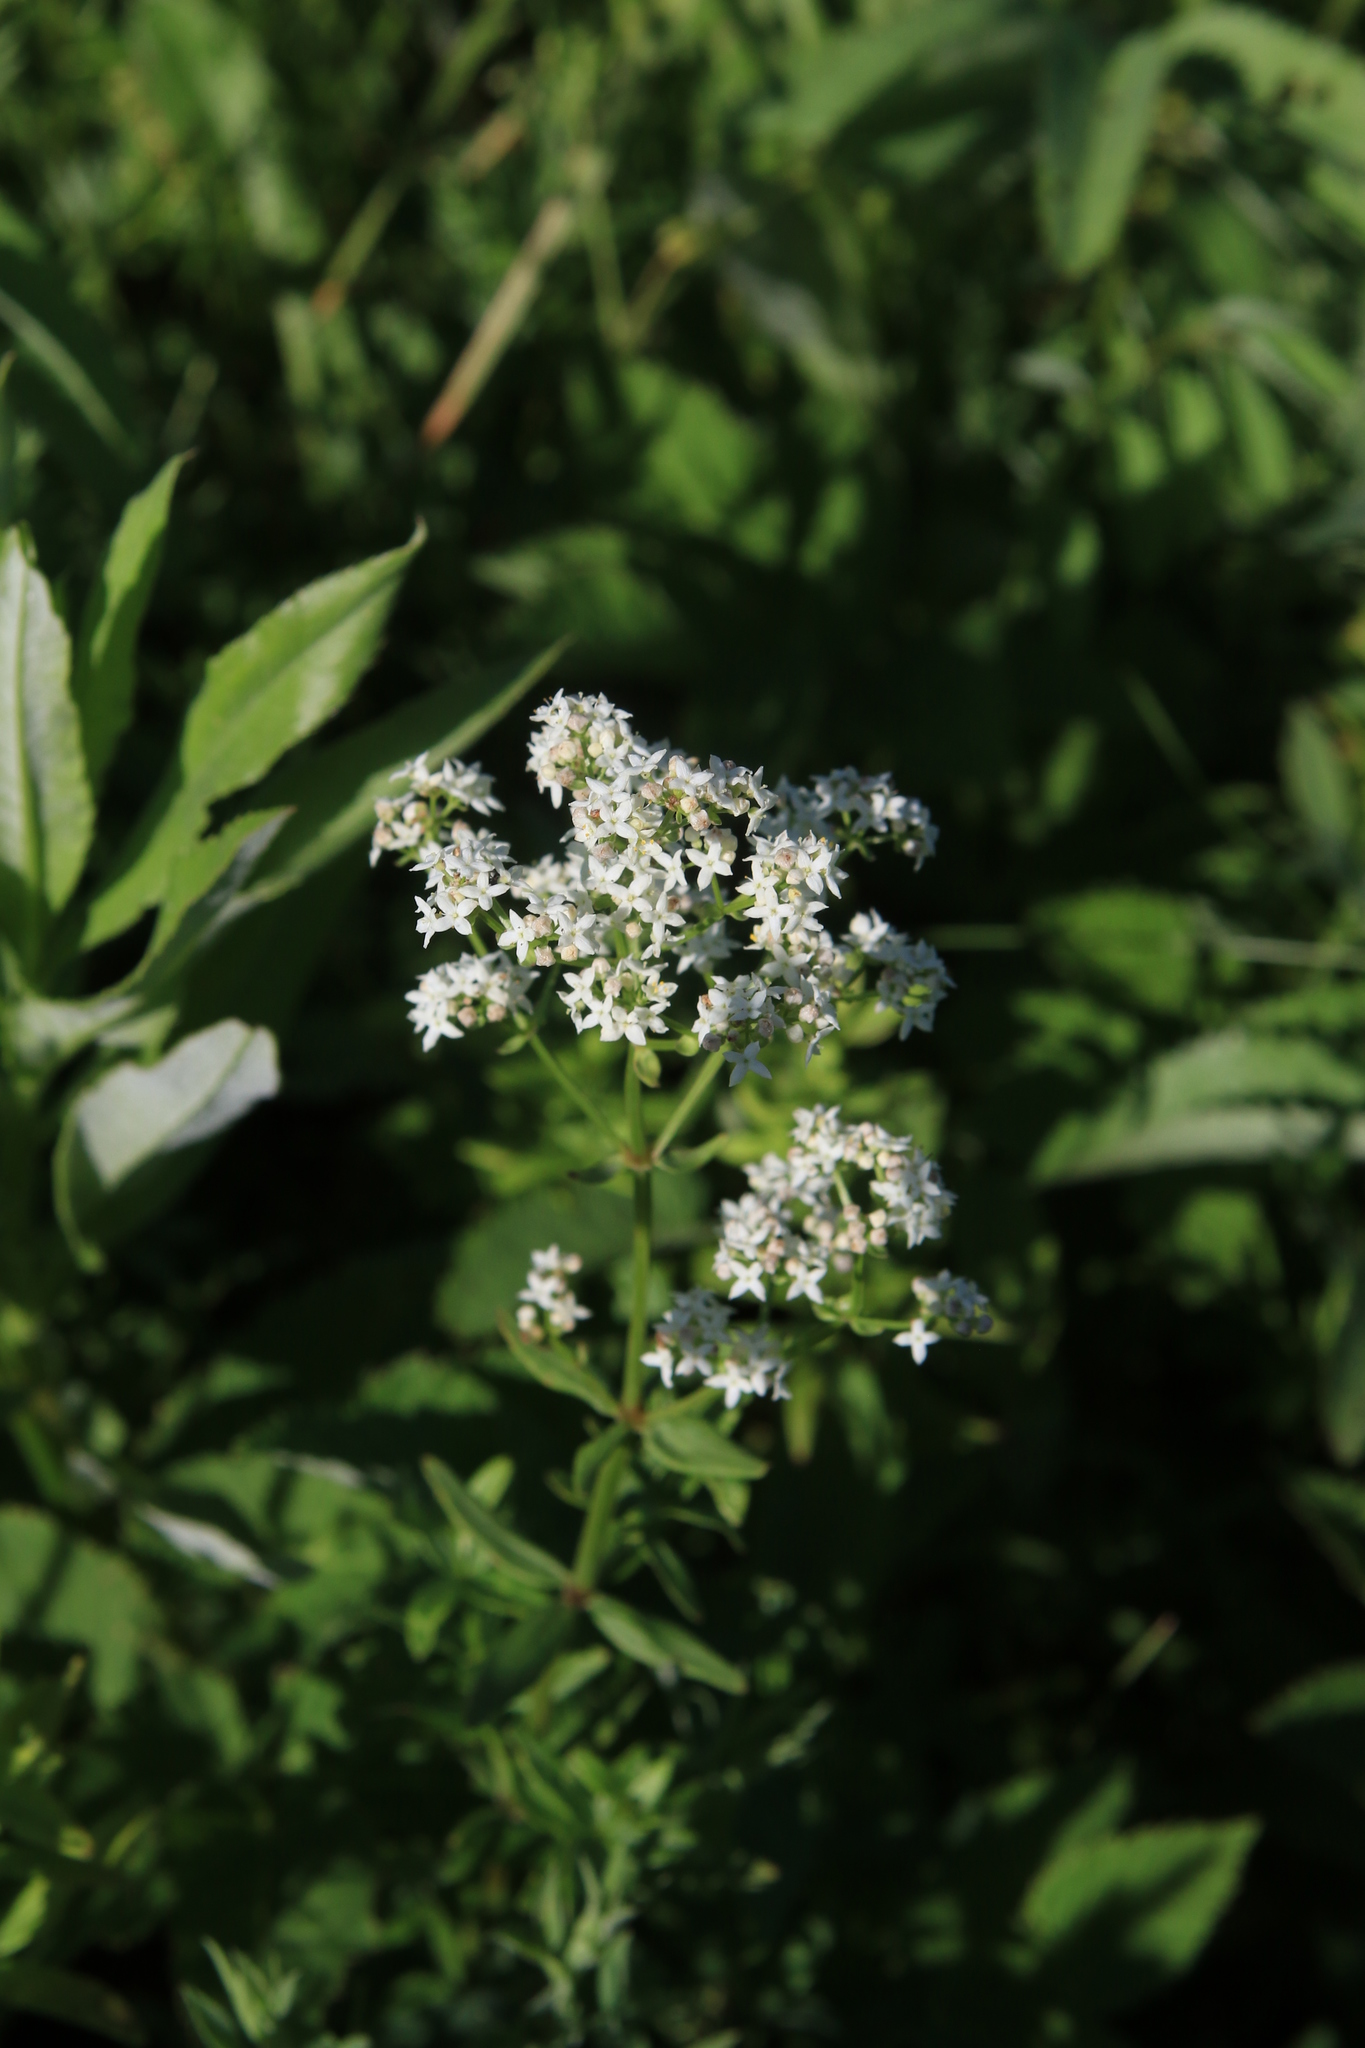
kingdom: Plantae
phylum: Tracheophyta
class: Magnoliopsida
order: Gentianales
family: Rubiaceae
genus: Galium
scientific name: Galium boreale
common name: Northern bedstraw
